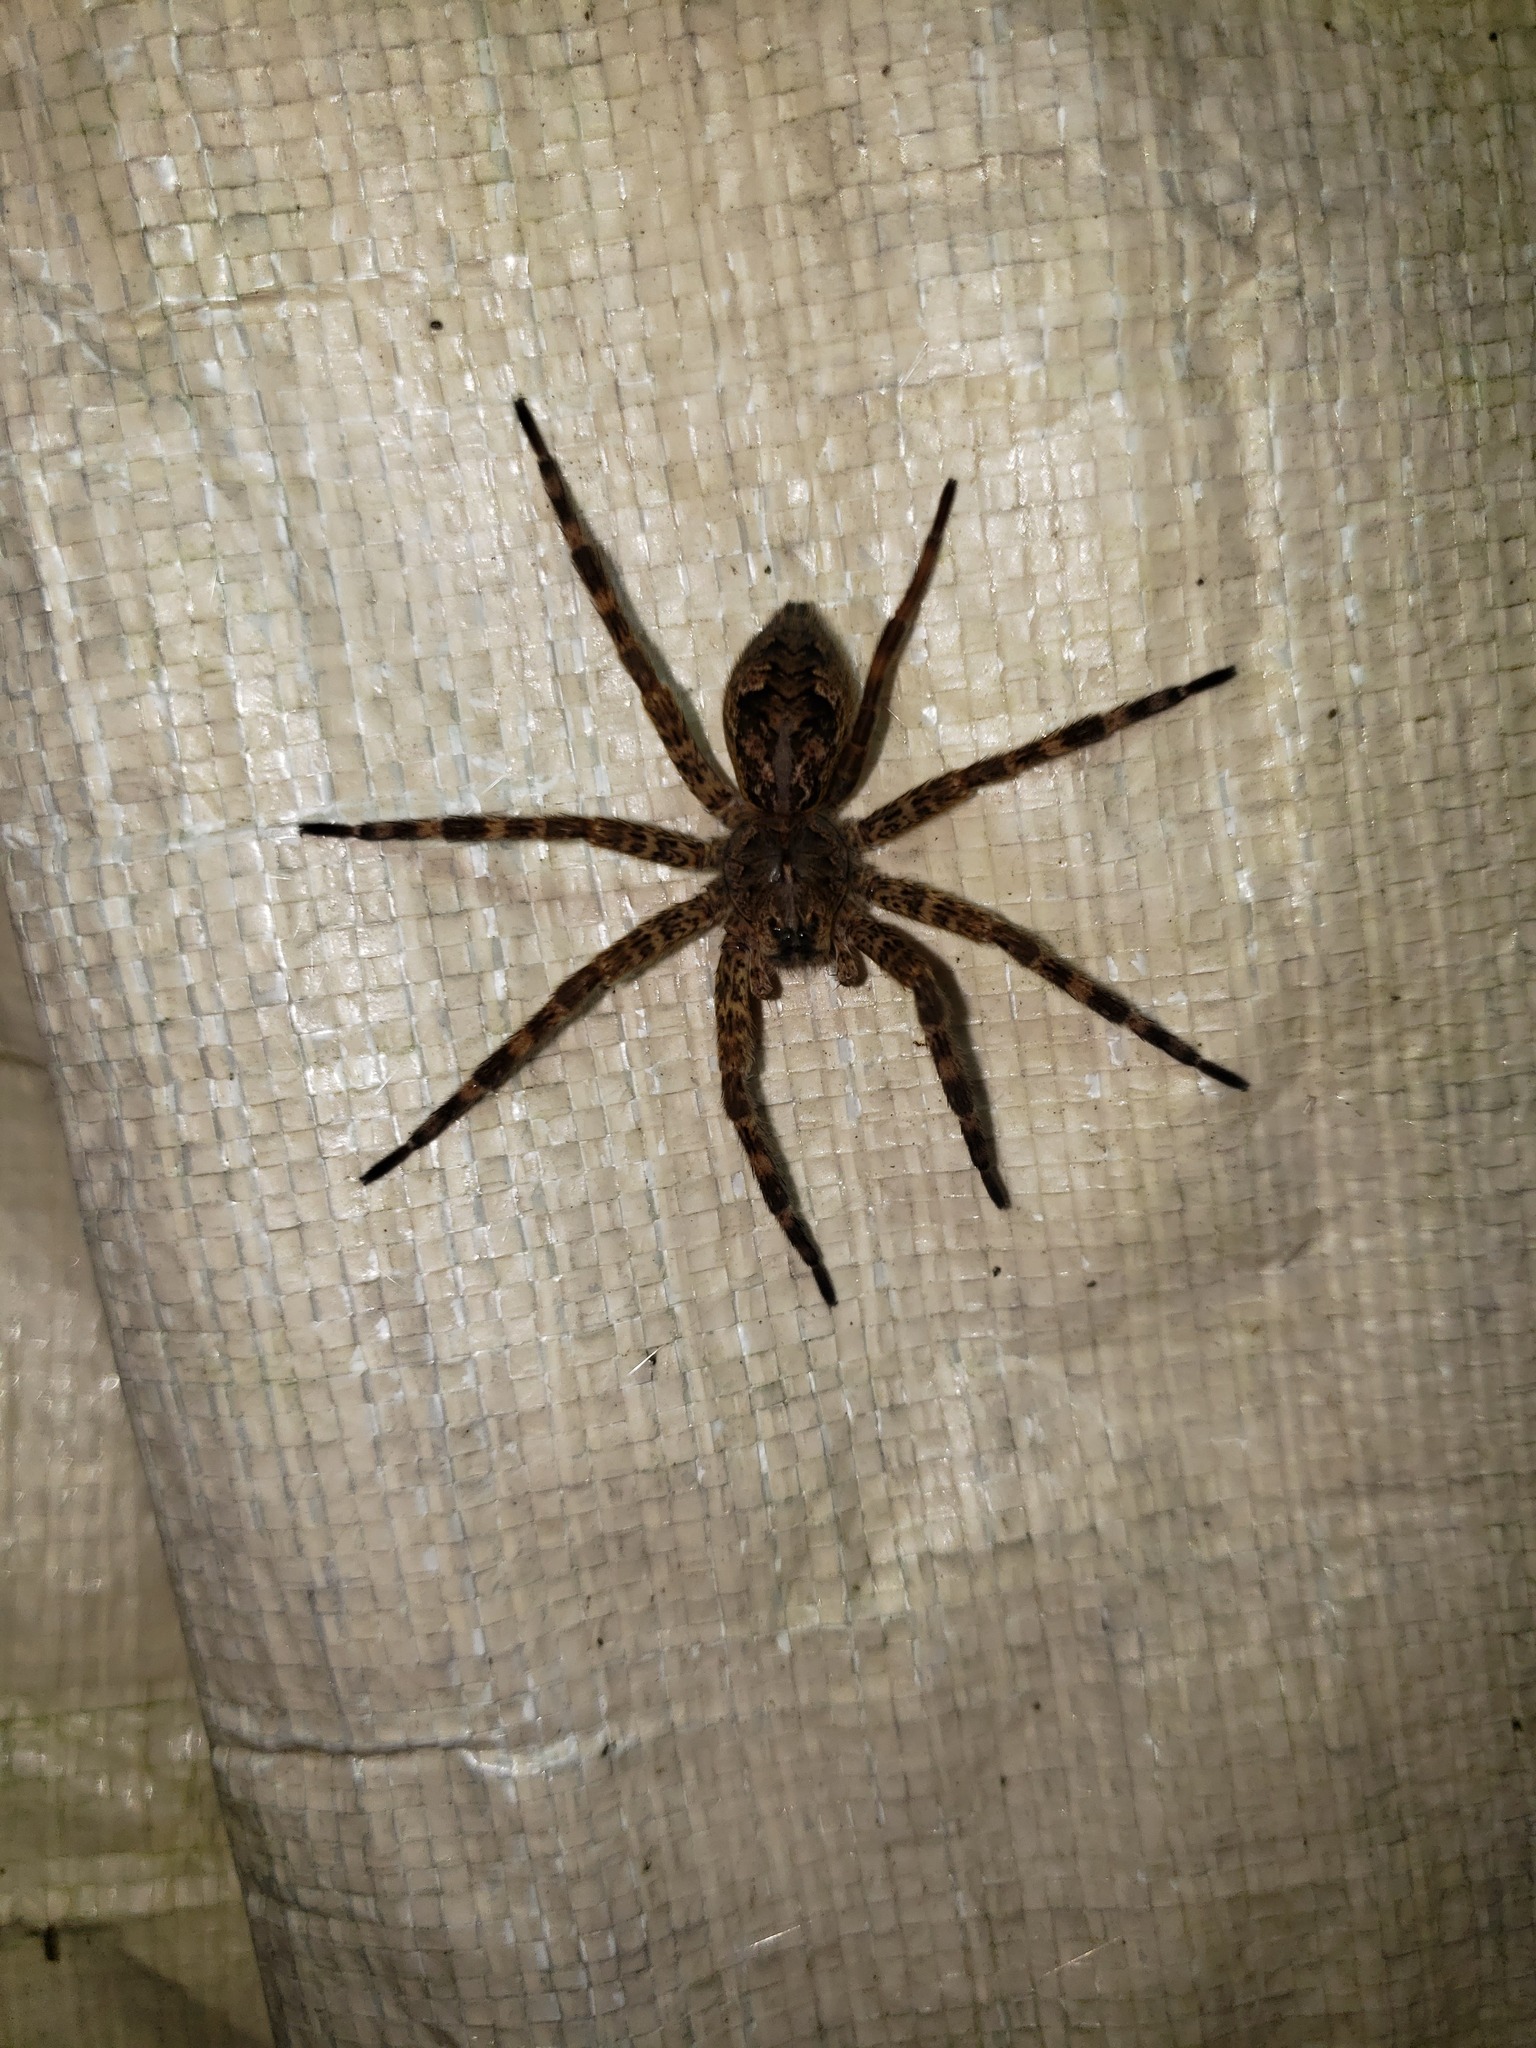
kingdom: Animalia
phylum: Arthropoda
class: Arachnida
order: Araneae
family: Pisauridae
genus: Dolomedes
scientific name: Dolomedes tenebrosus
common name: Dark fishing spider
